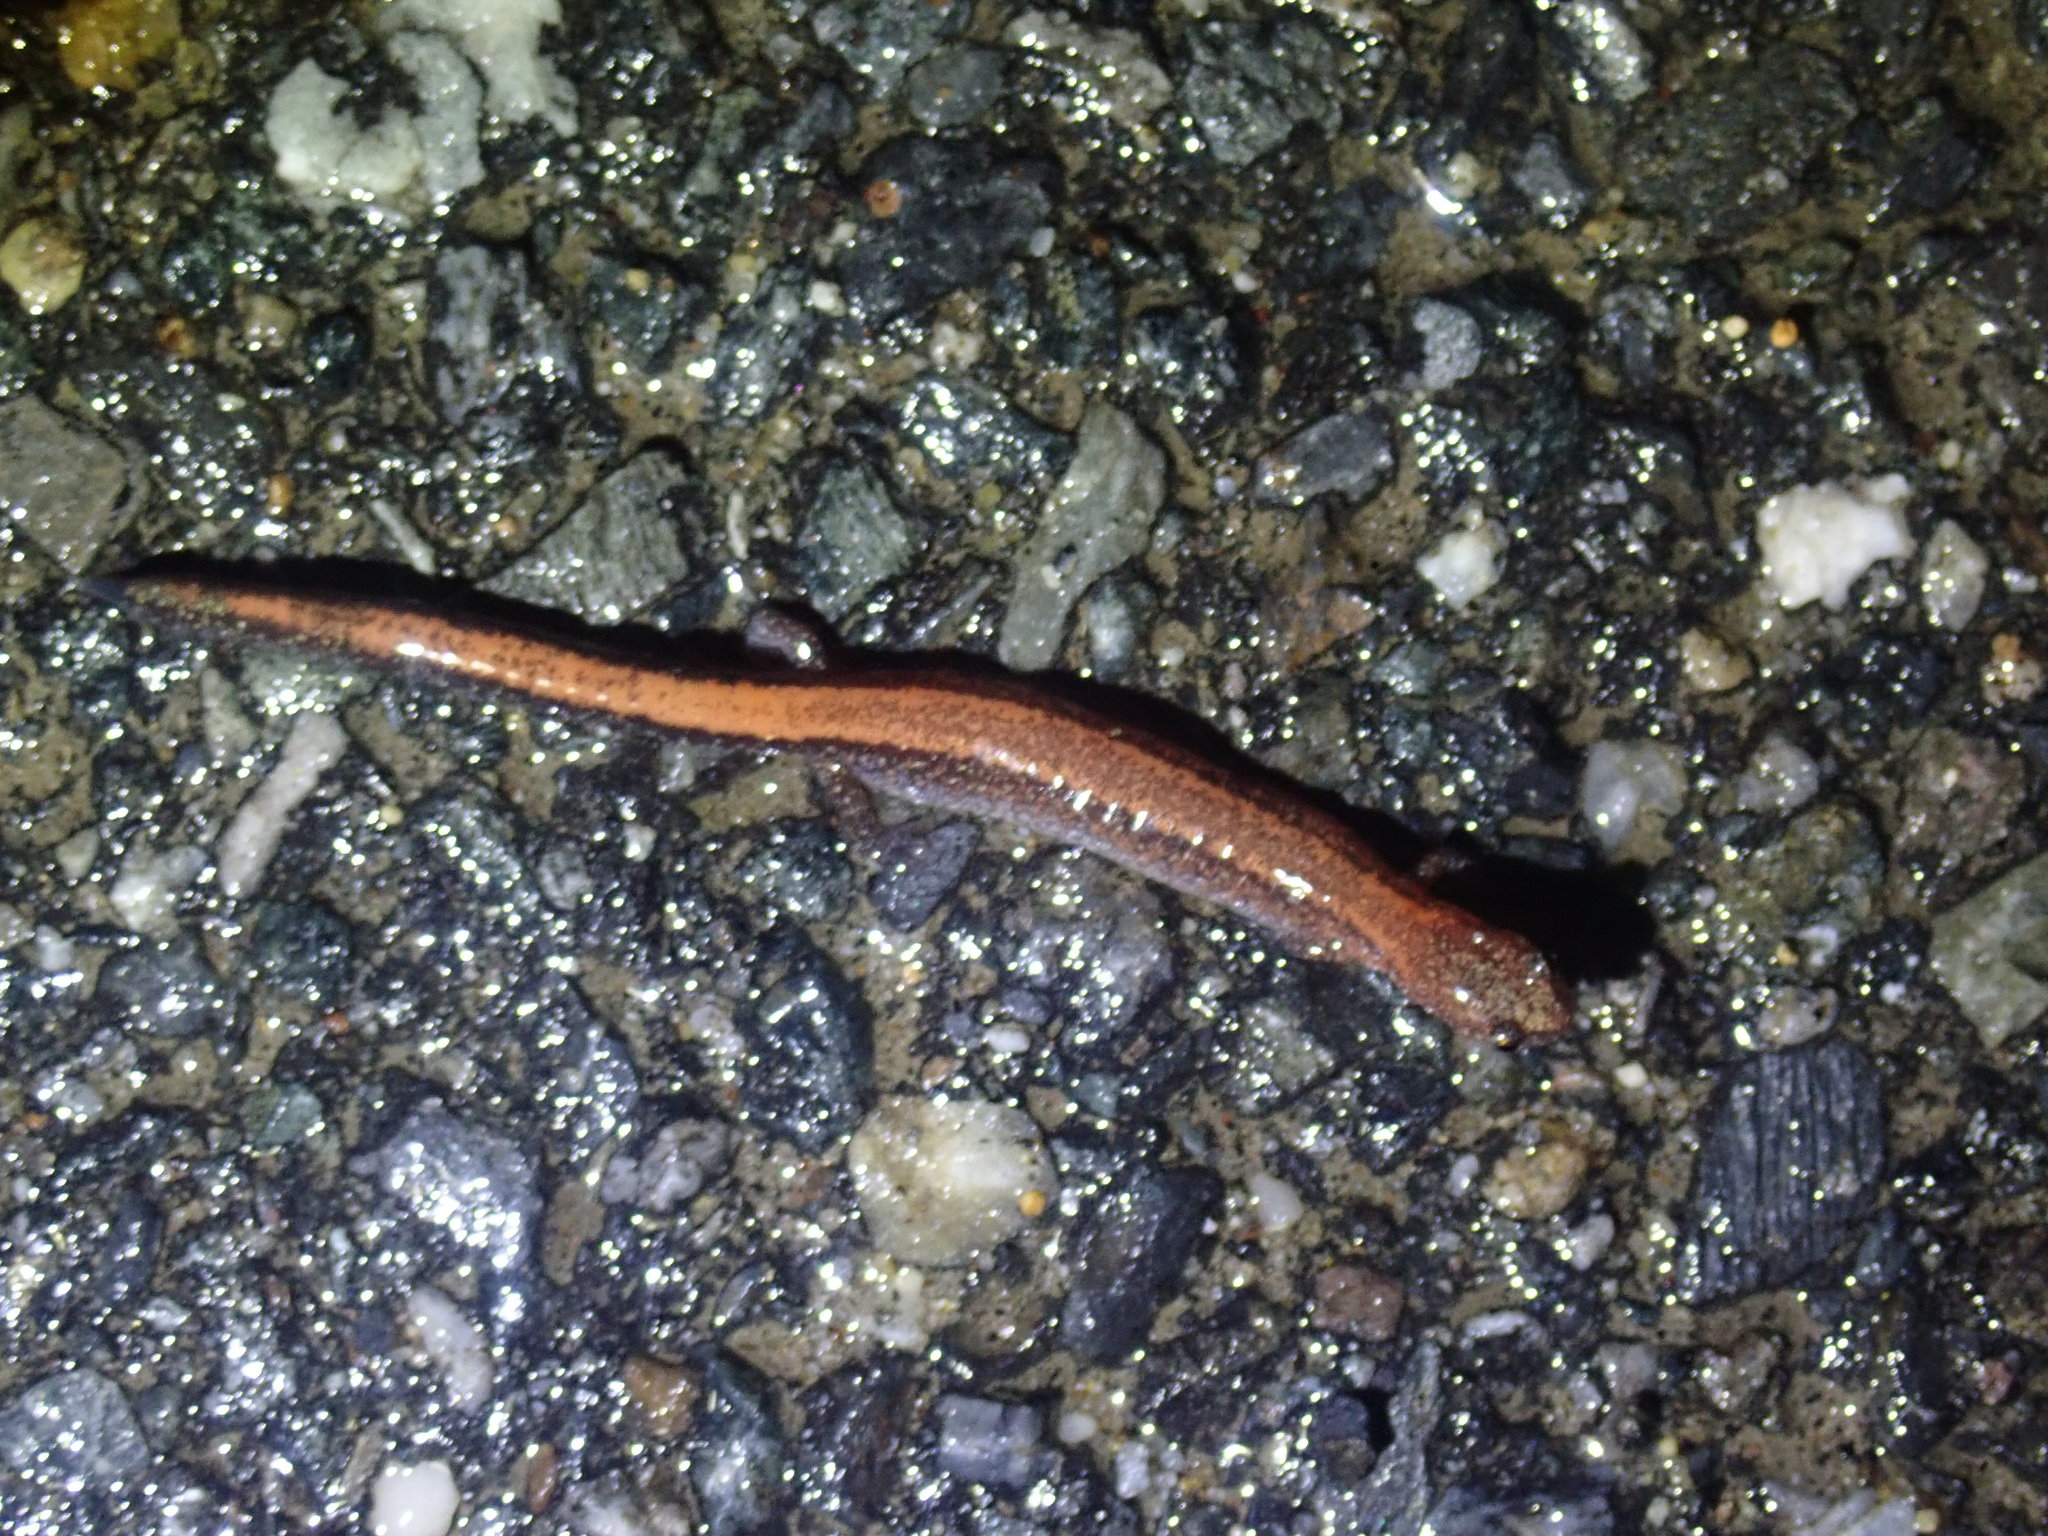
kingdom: Animalia
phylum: Chordata
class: Amphibia
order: Caudata
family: Plethodontidae
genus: Plethodon
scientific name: Plethodon cinereus
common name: Redback salamander
